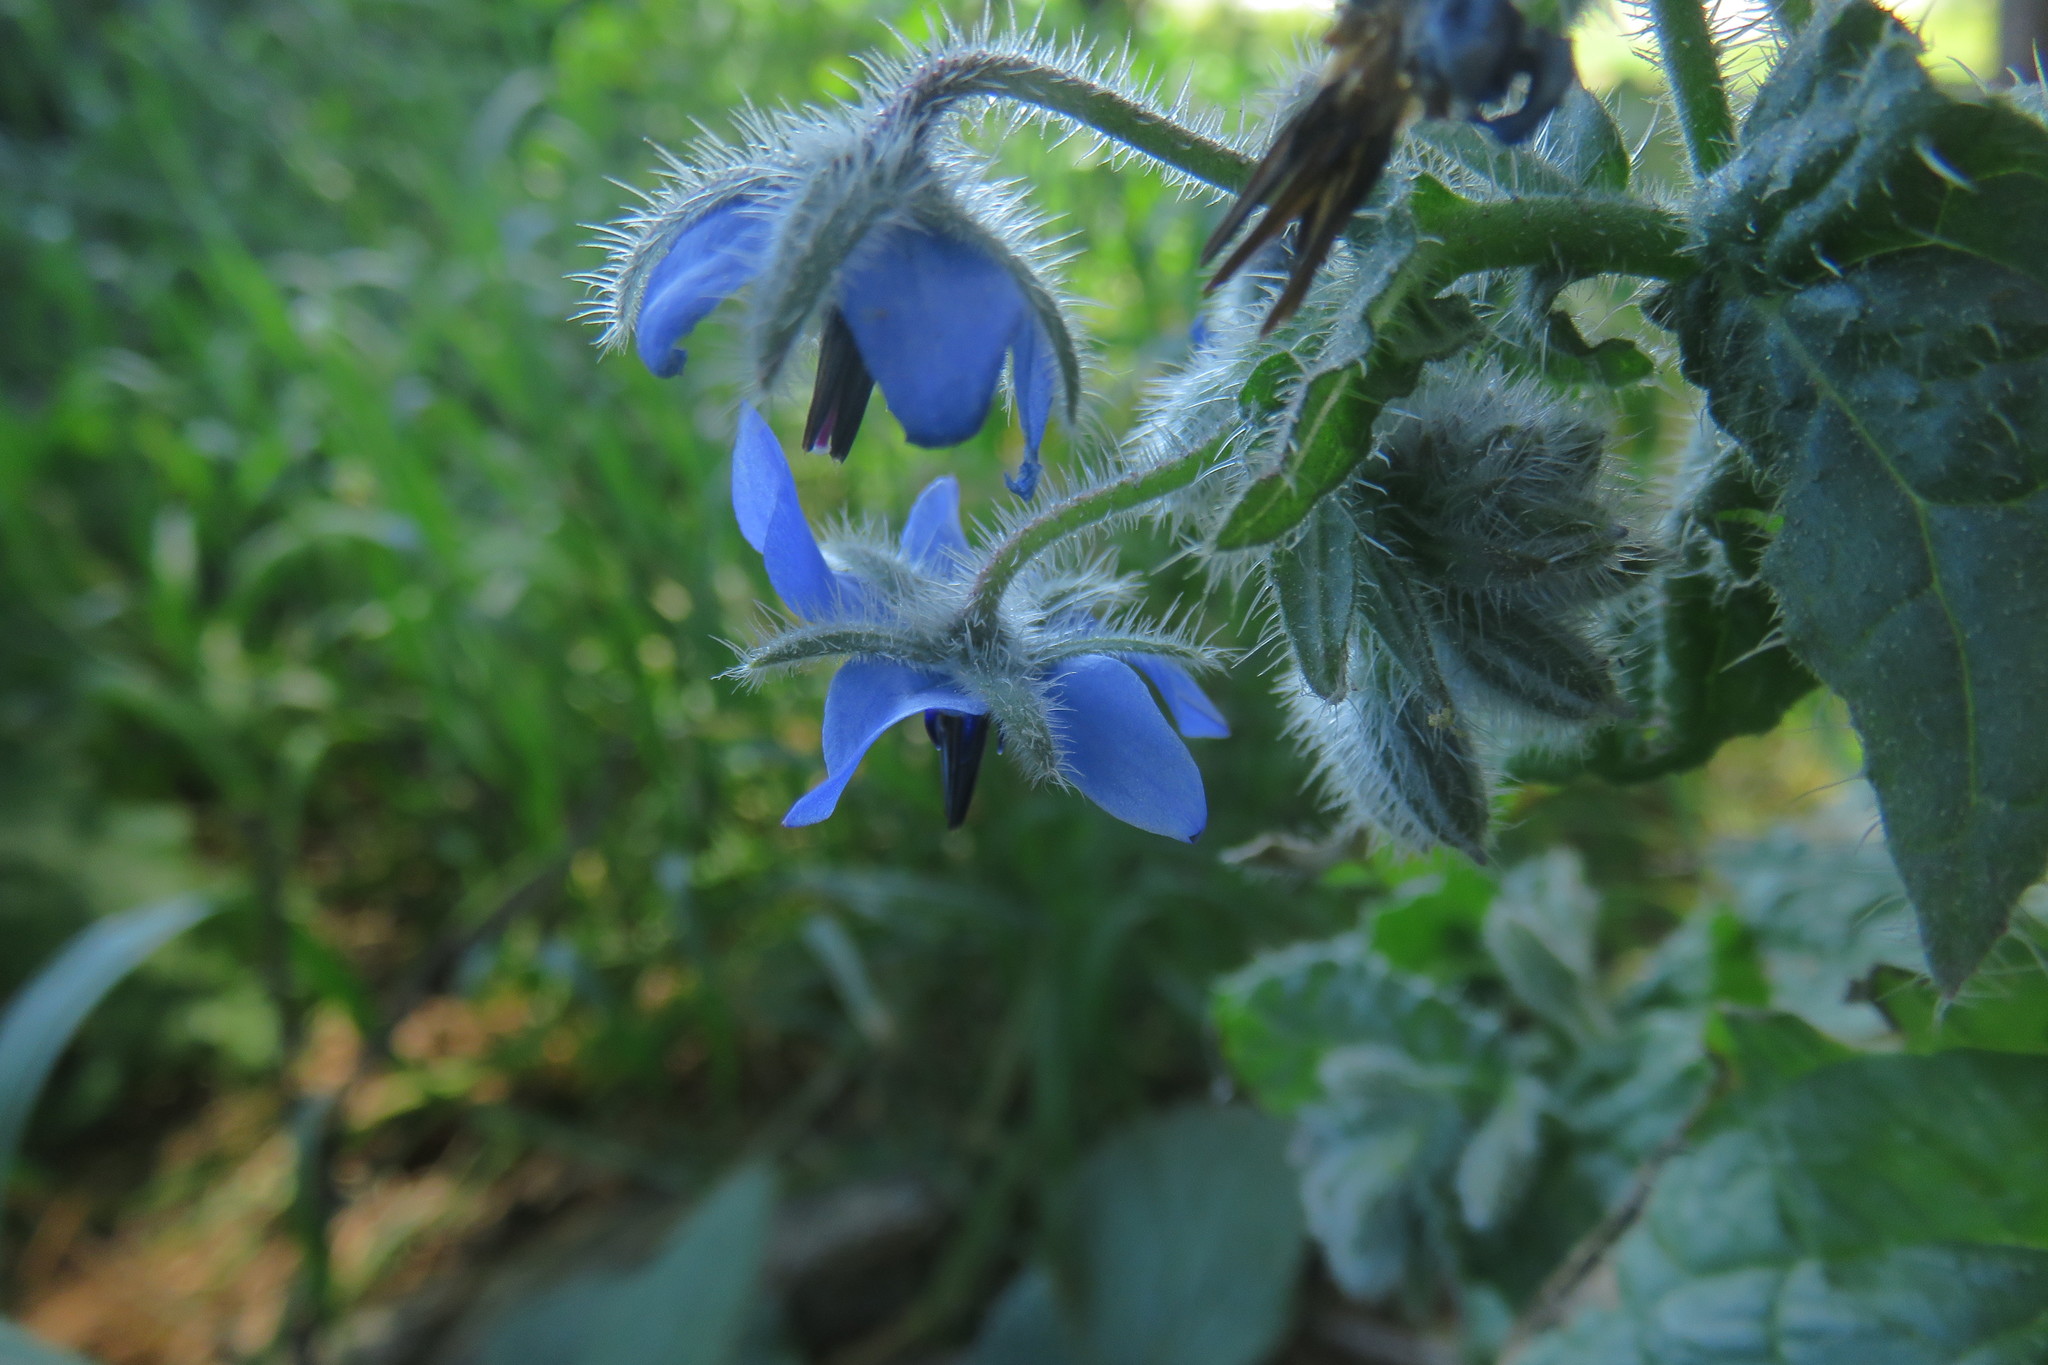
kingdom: Plantae
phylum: Tracheophyta
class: Magnoliopsida
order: Boraginales
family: Boraginaceae
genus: Borago
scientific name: Borago officinalis
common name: Borage
